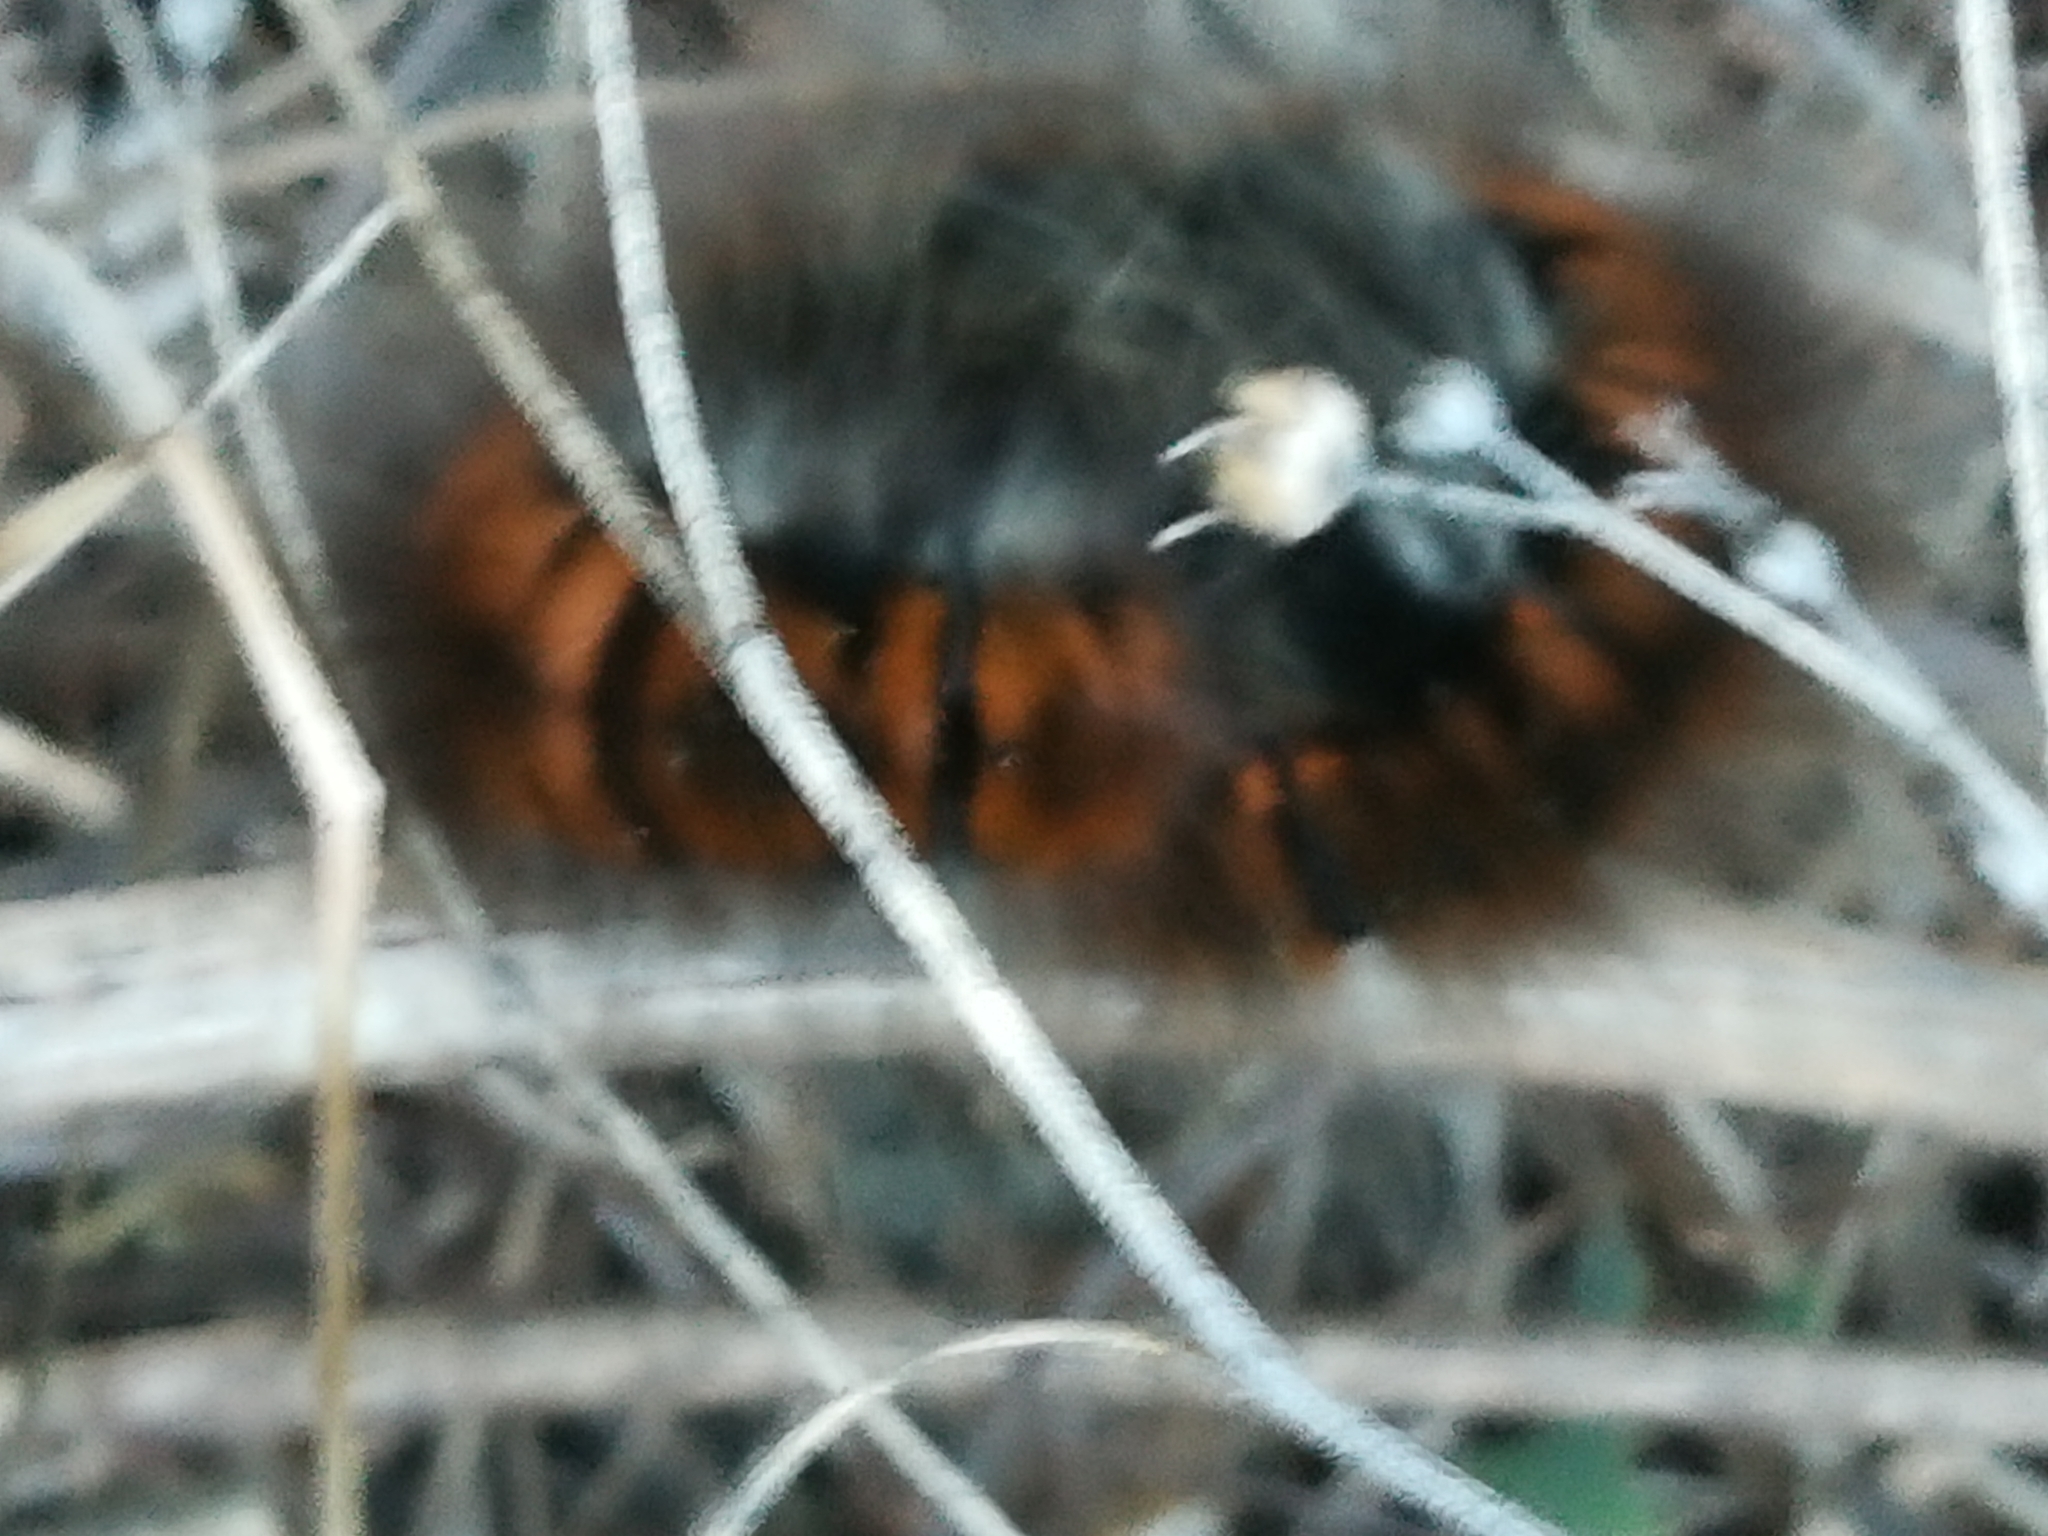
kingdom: Animalia
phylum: Arthropoda
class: Insecta
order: Lepidoptera
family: Lasiocampidae
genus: Macrothylacia
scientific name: Macrothylacia rubi
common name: Fox moth
